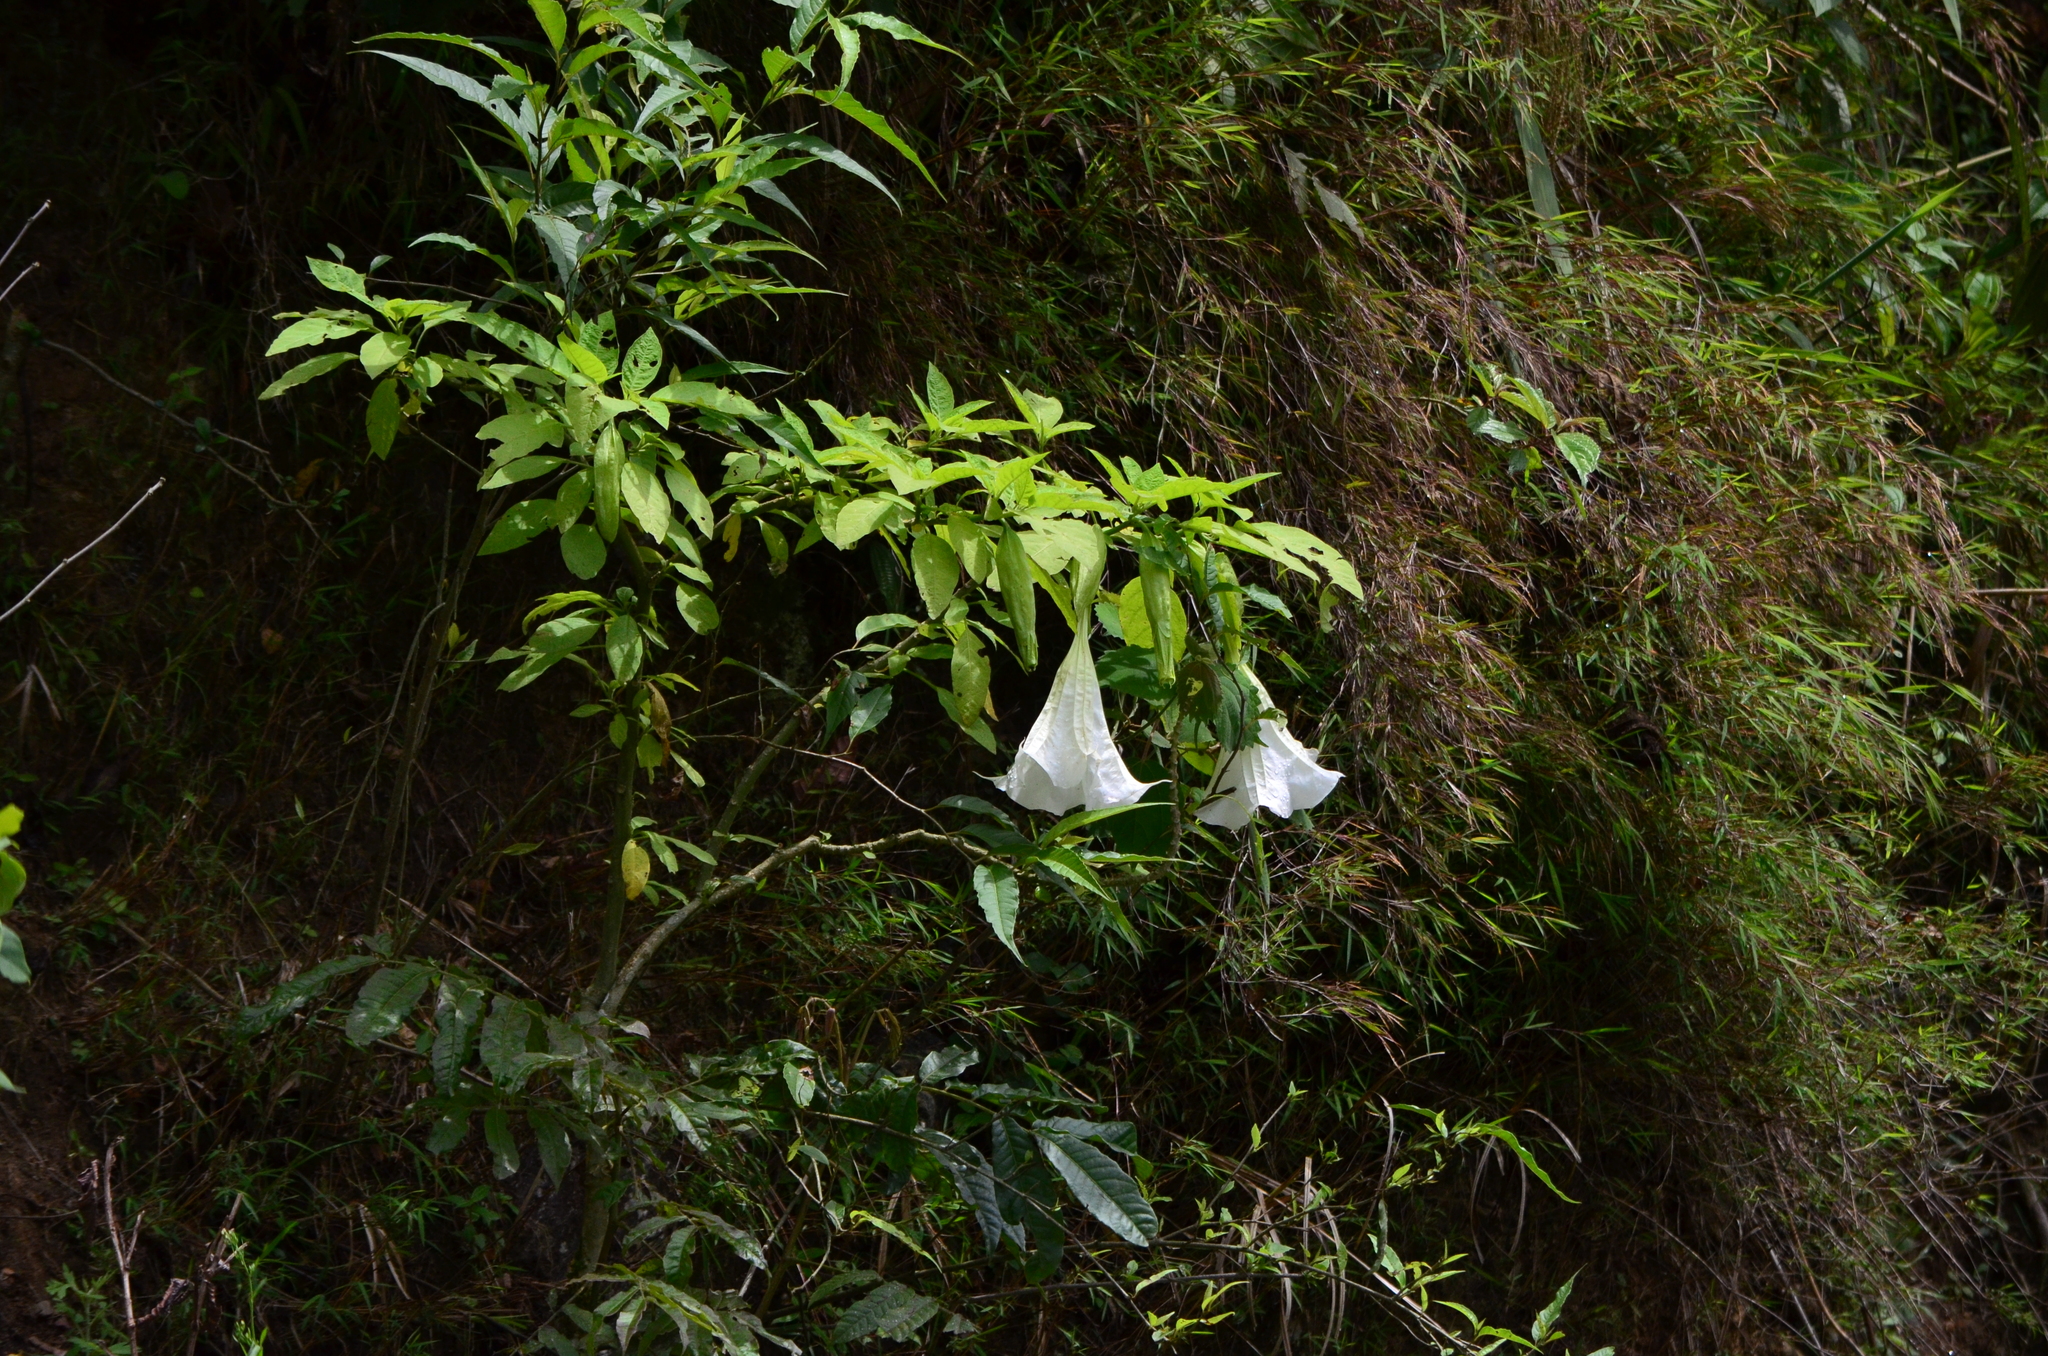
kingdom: Plantae
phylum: Tracheophyta
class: Magnoliopsida
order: Solanales
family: Solanaceae
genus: Brugmansia
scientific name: Brugmansia suaveolens
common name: Angel's tears
